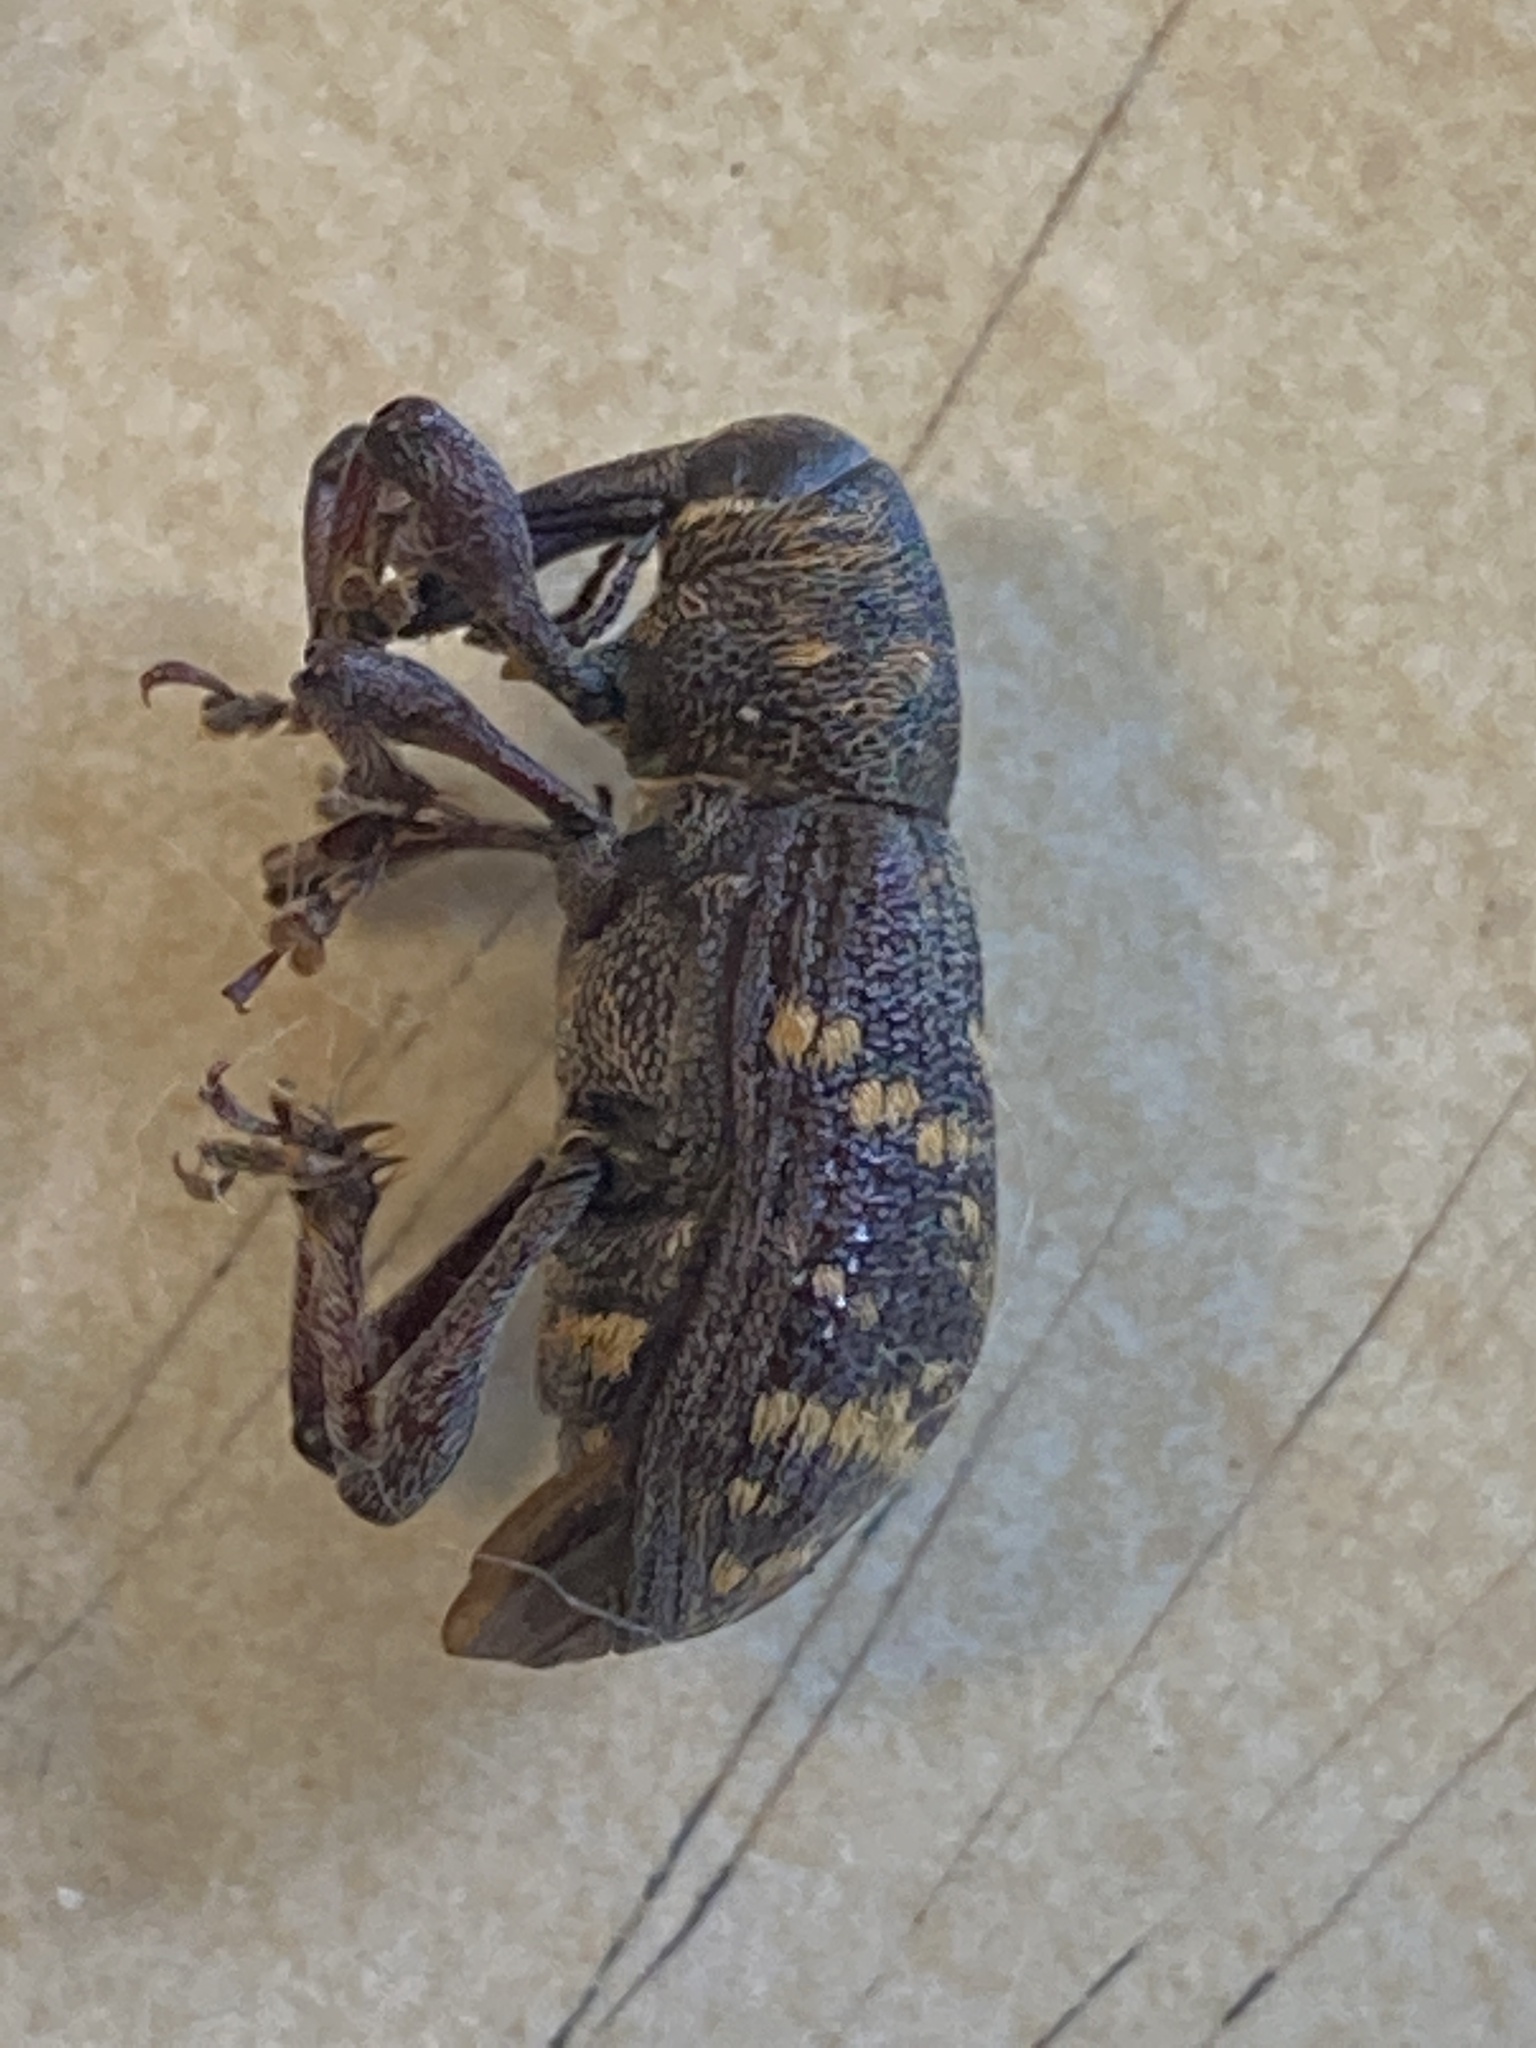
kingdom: Animalia
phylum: Arthropoda
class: Insecta
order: Coleoptera
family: Curculionidae
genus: Hylobius
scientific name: Hylobius abietis
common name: Large pine weevil
